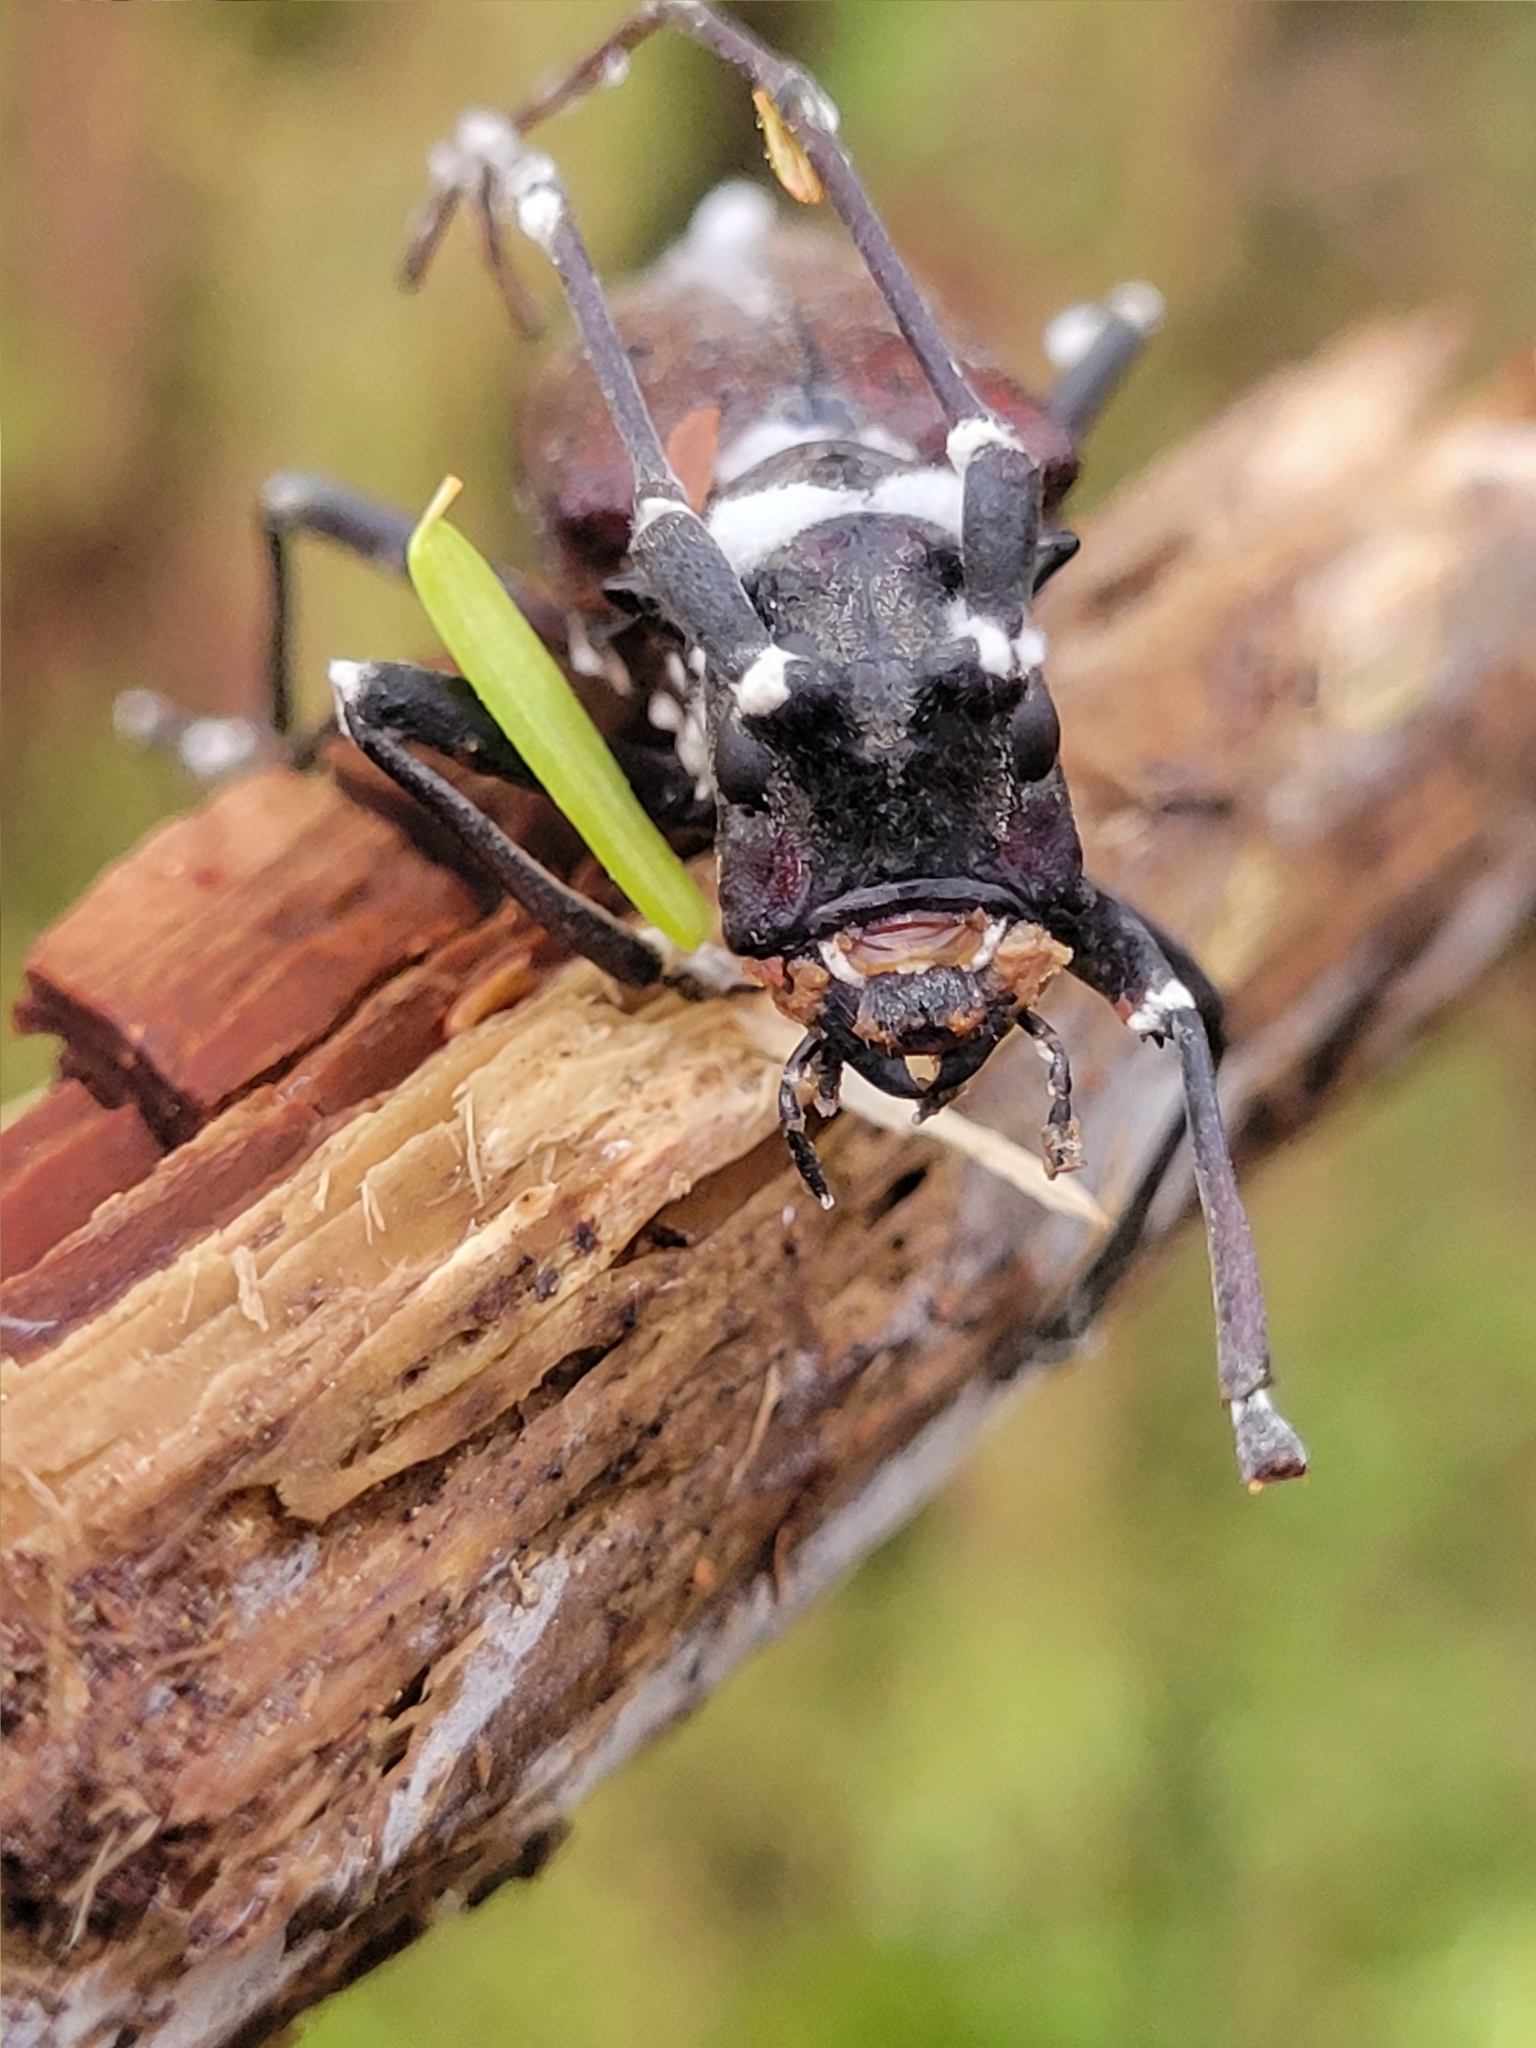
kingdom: Fungi
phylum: Ascomycota
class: Sordariomycetes
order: Hypocreales
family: Cordycipitaceae
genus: Beauveria
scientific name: Beauveria bassiana
